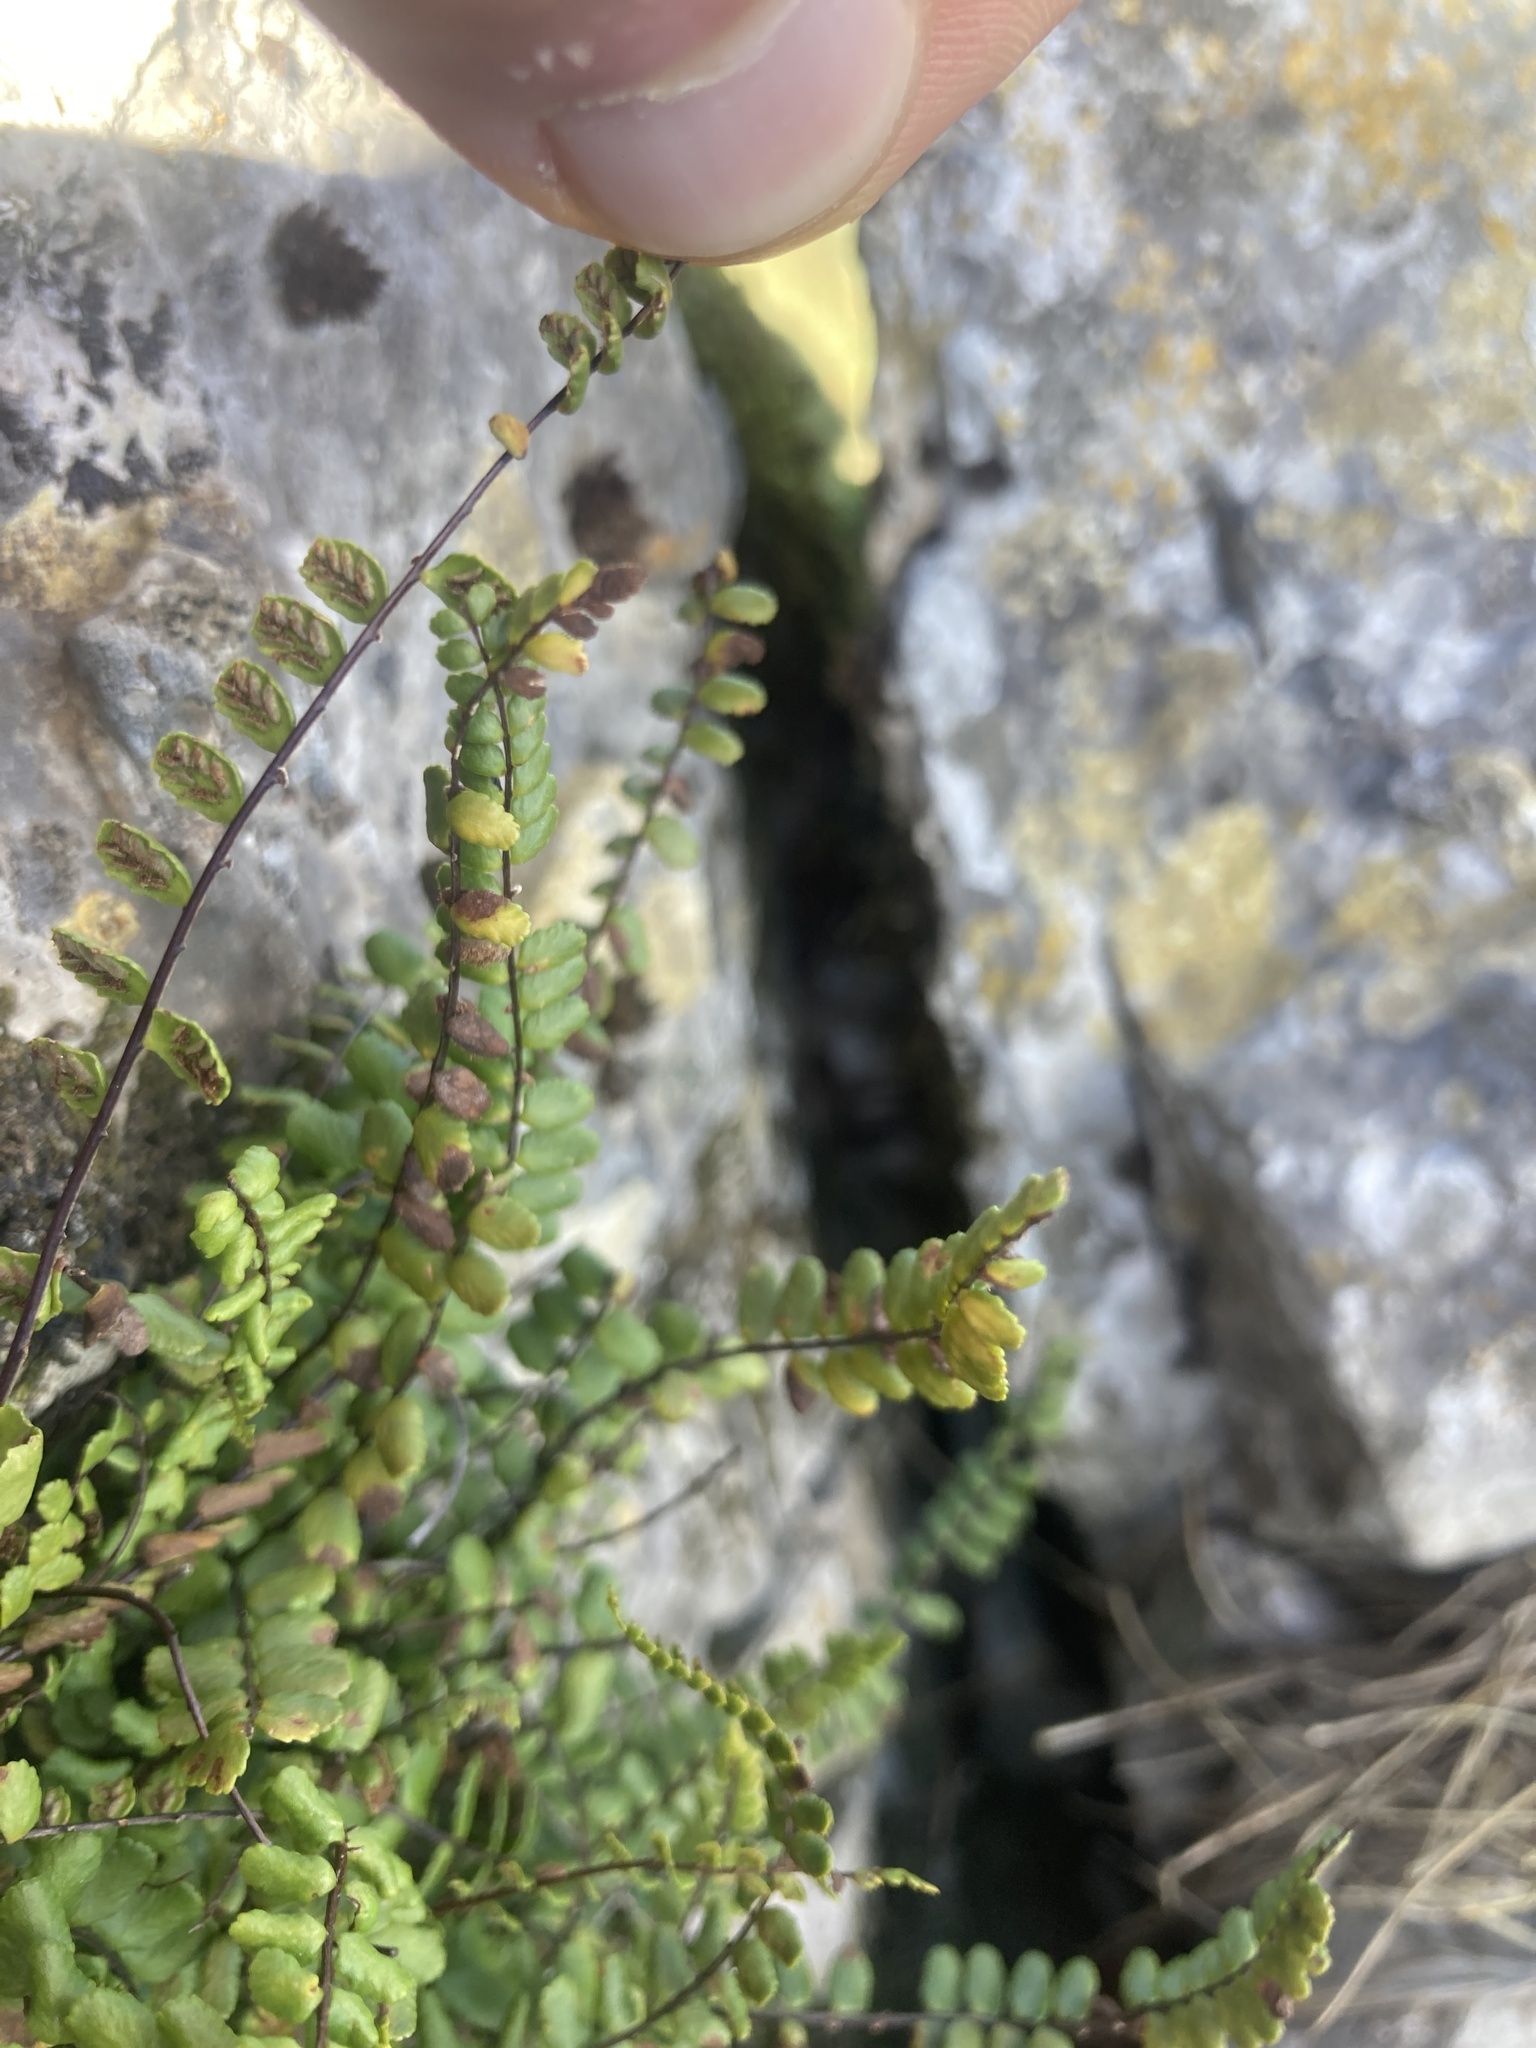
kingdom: Plantae
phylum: Tracheophyta
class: Polypodiopsida
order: Polypodiales
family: Aspleniaceae
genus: Asplenium
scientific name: Asplenium trichomanes
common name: Maidenhair spleenwort
